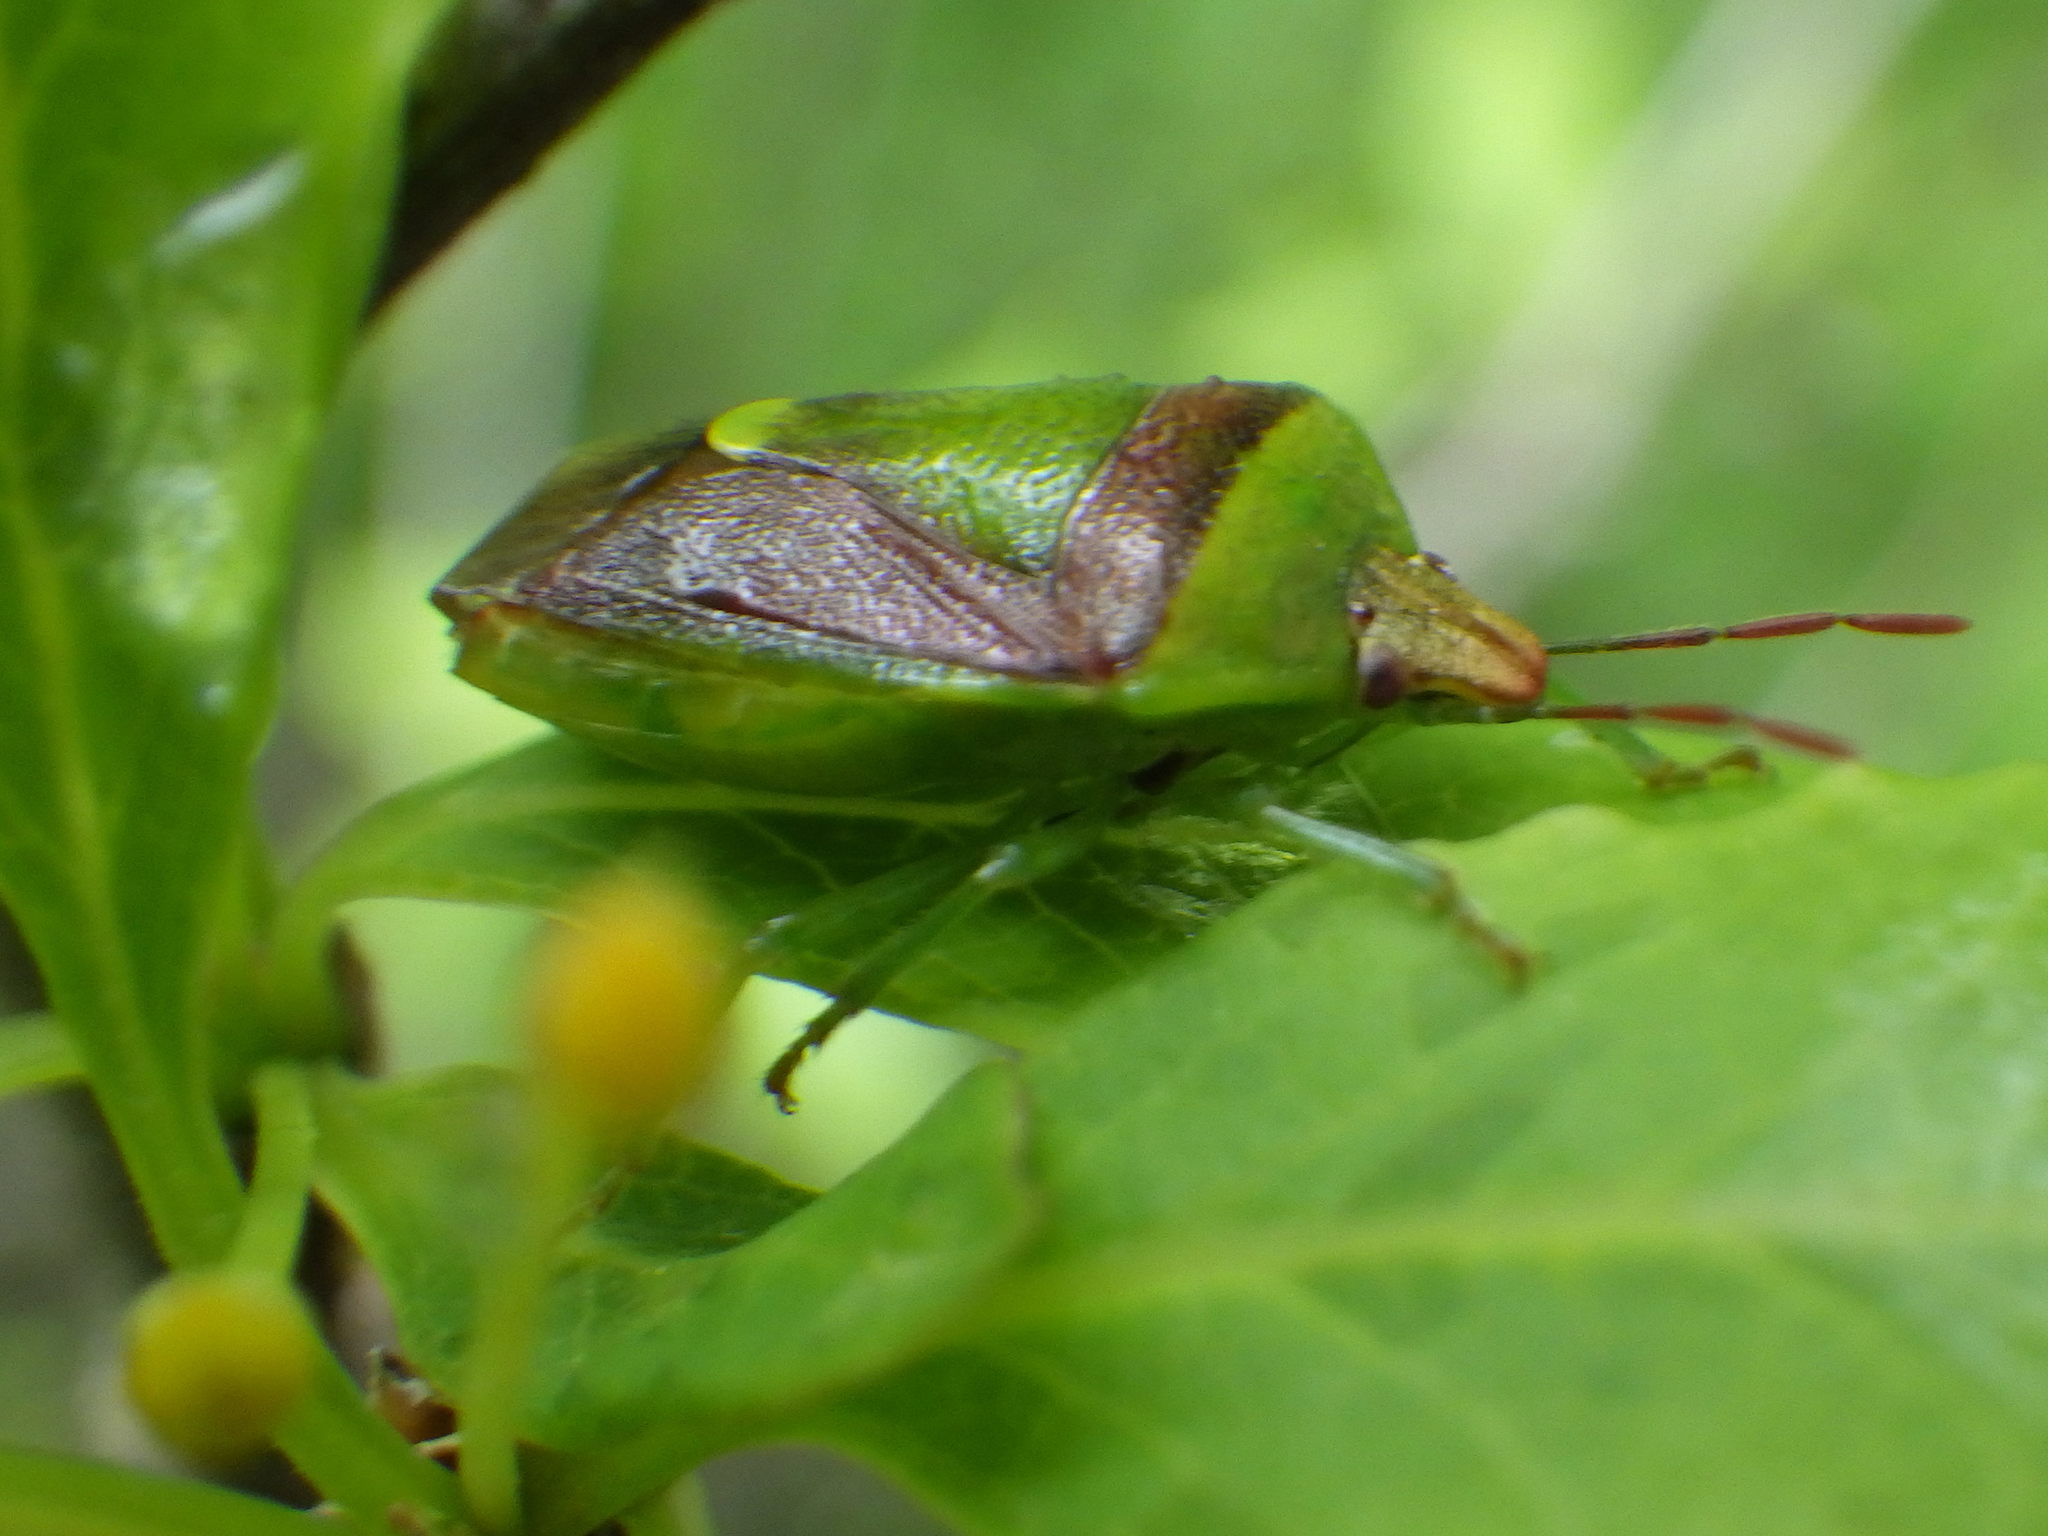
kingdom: Animalia
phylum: Arthropoda
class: Insecta
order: Hemiptera
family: Pentatomidae
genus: Banasa
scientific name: Banasa dimidiata
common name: Green burgundy stink bug
